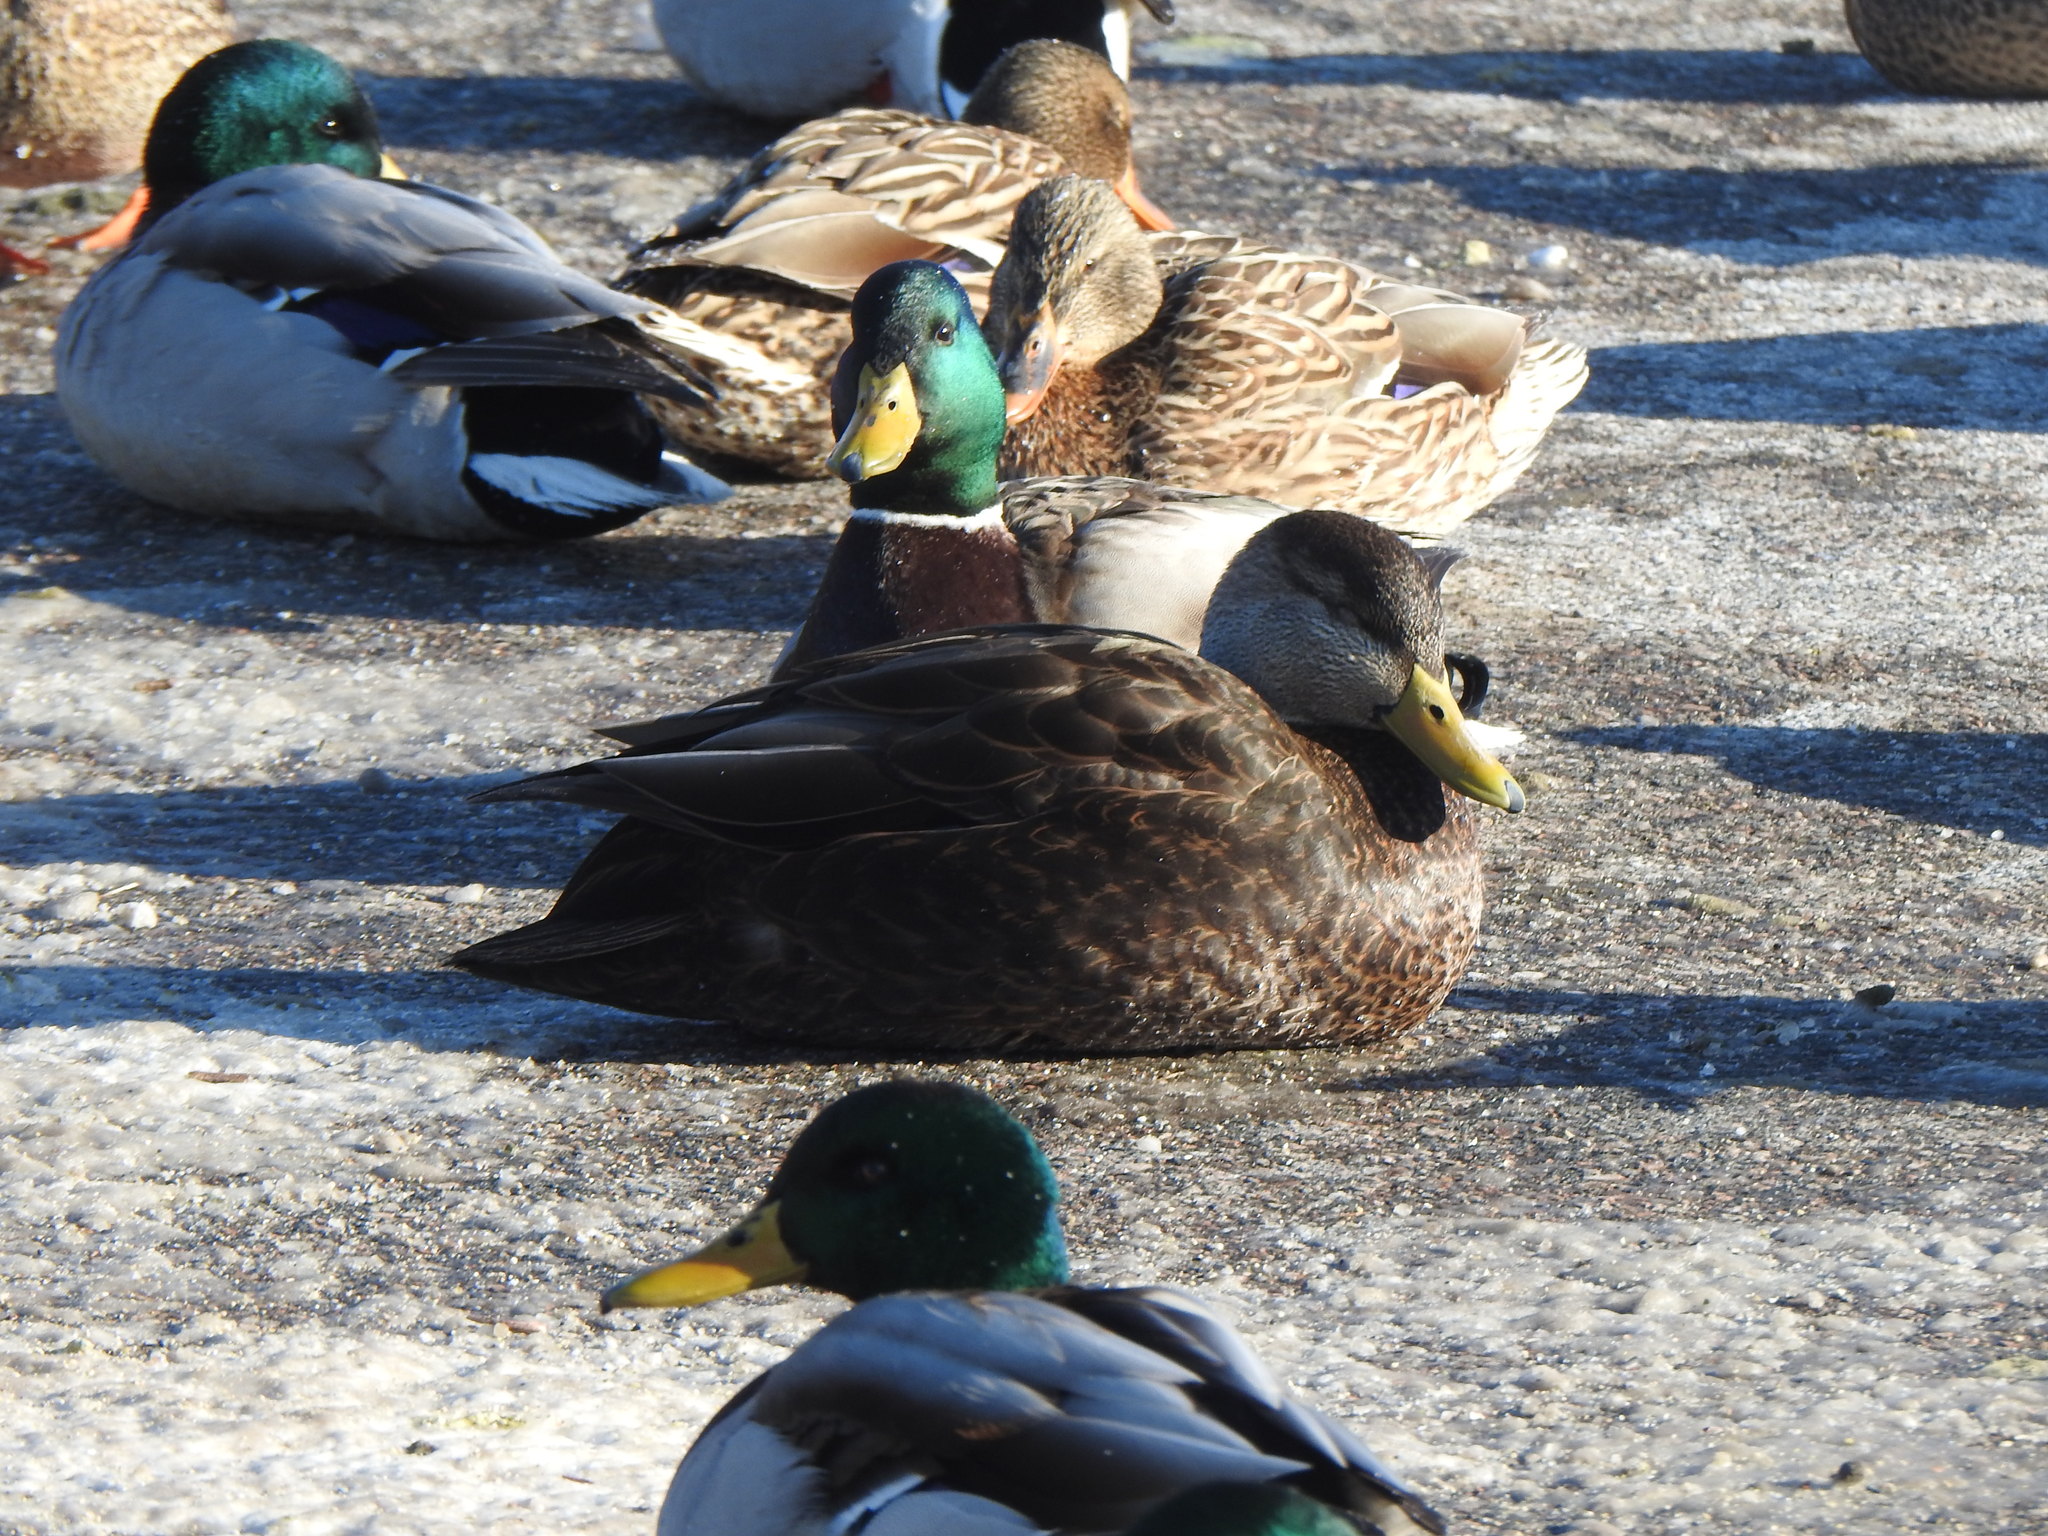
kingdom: Animalia
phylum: Chordata
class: Aves
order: Anseriformes
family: Anatidae
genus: Anas
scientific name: Anas rubripes
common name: American black duck
